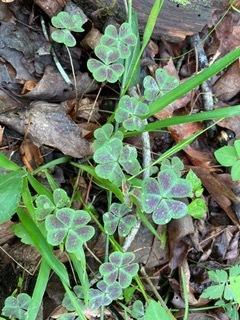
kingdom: Plantae
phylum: Tracheophyta
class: Magnoliopsida
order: Oxalidales
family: Oxalidaceae
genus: Oxalis
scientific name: Oxalis violacea
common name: Violet wood-sorrel
